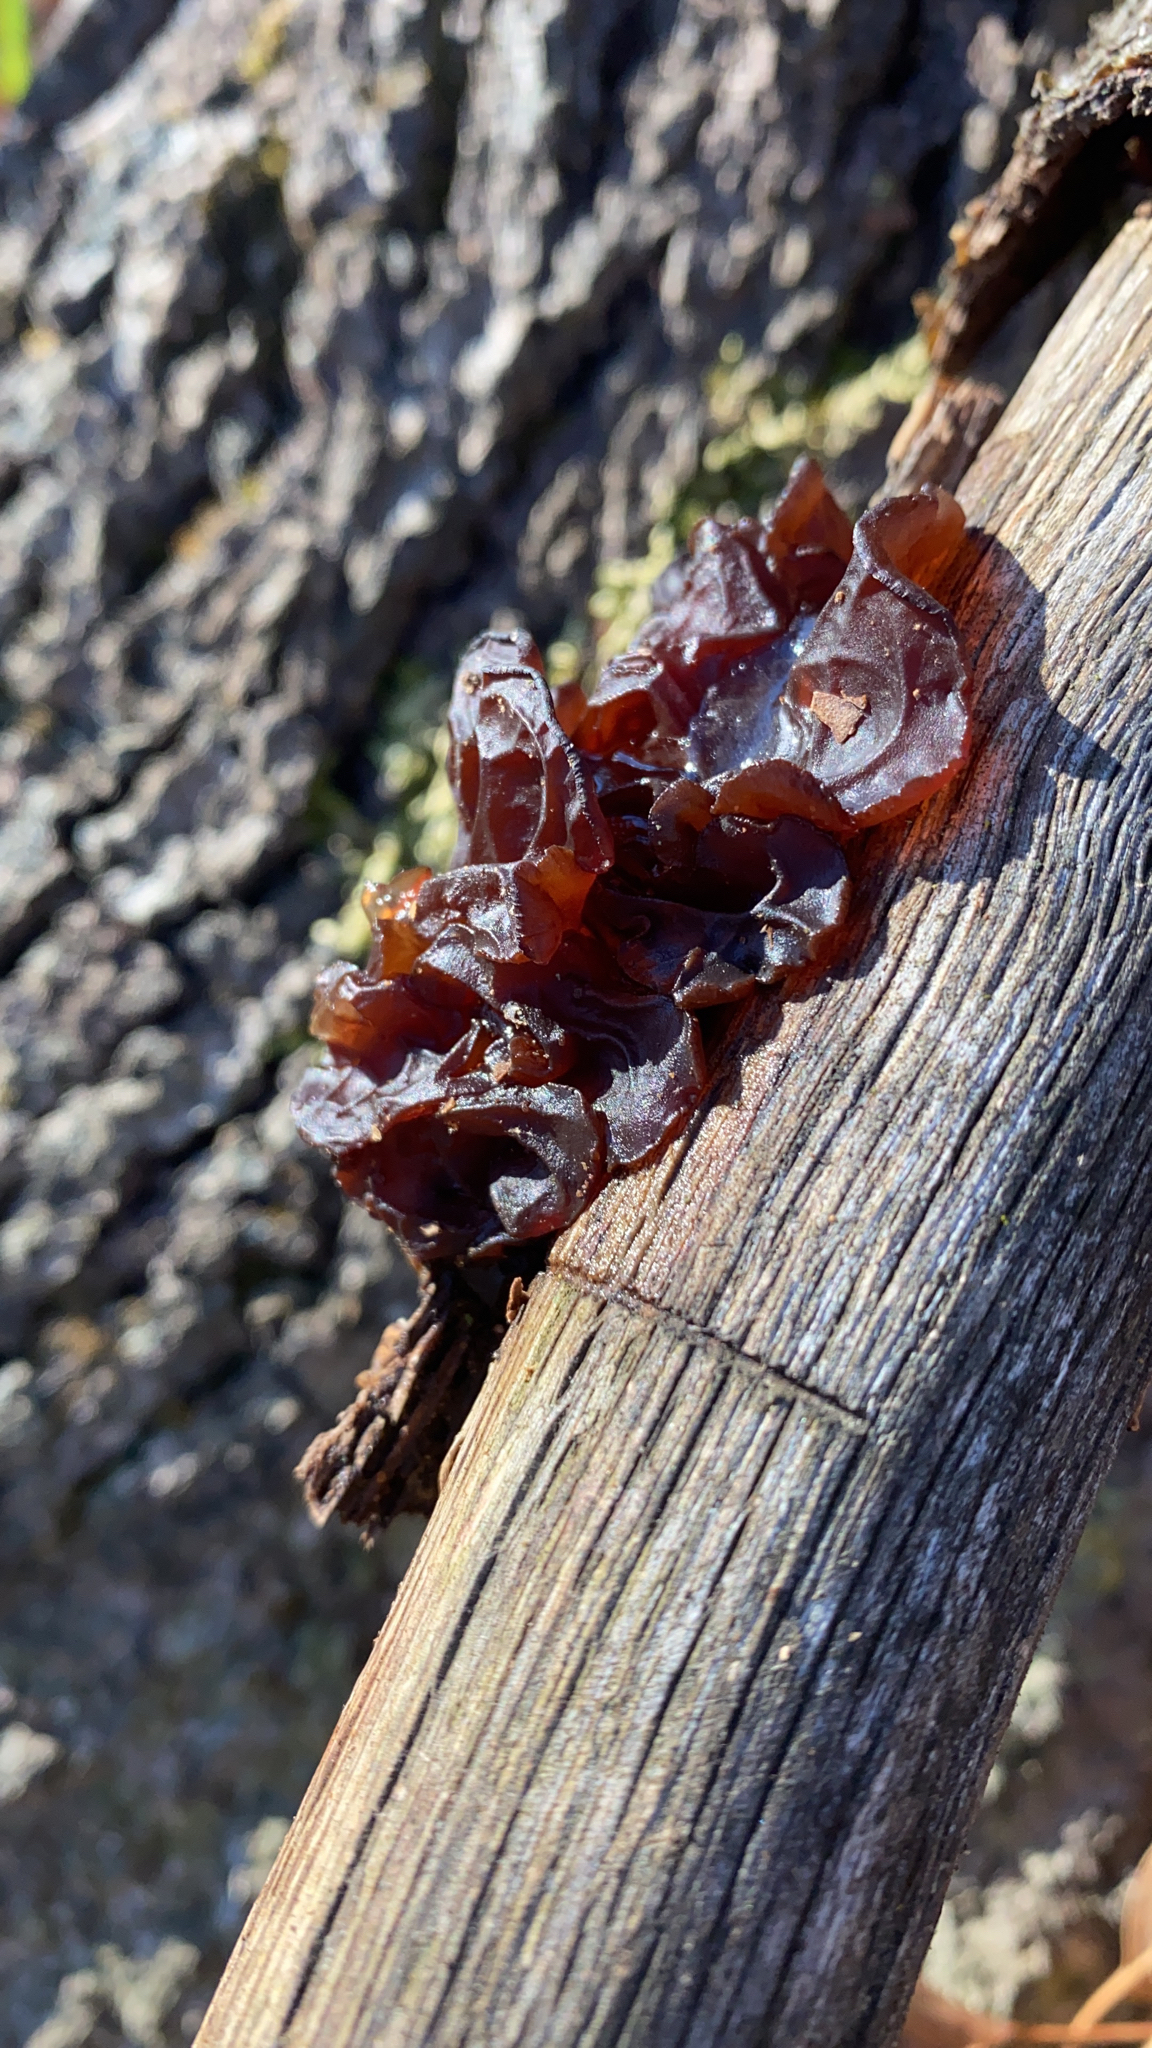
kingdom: Fungi
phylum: Basidiomycota
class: Agaricomycetes
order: Auriculariales
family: Auriculariaceae
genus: Exidia
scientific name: Exidia
